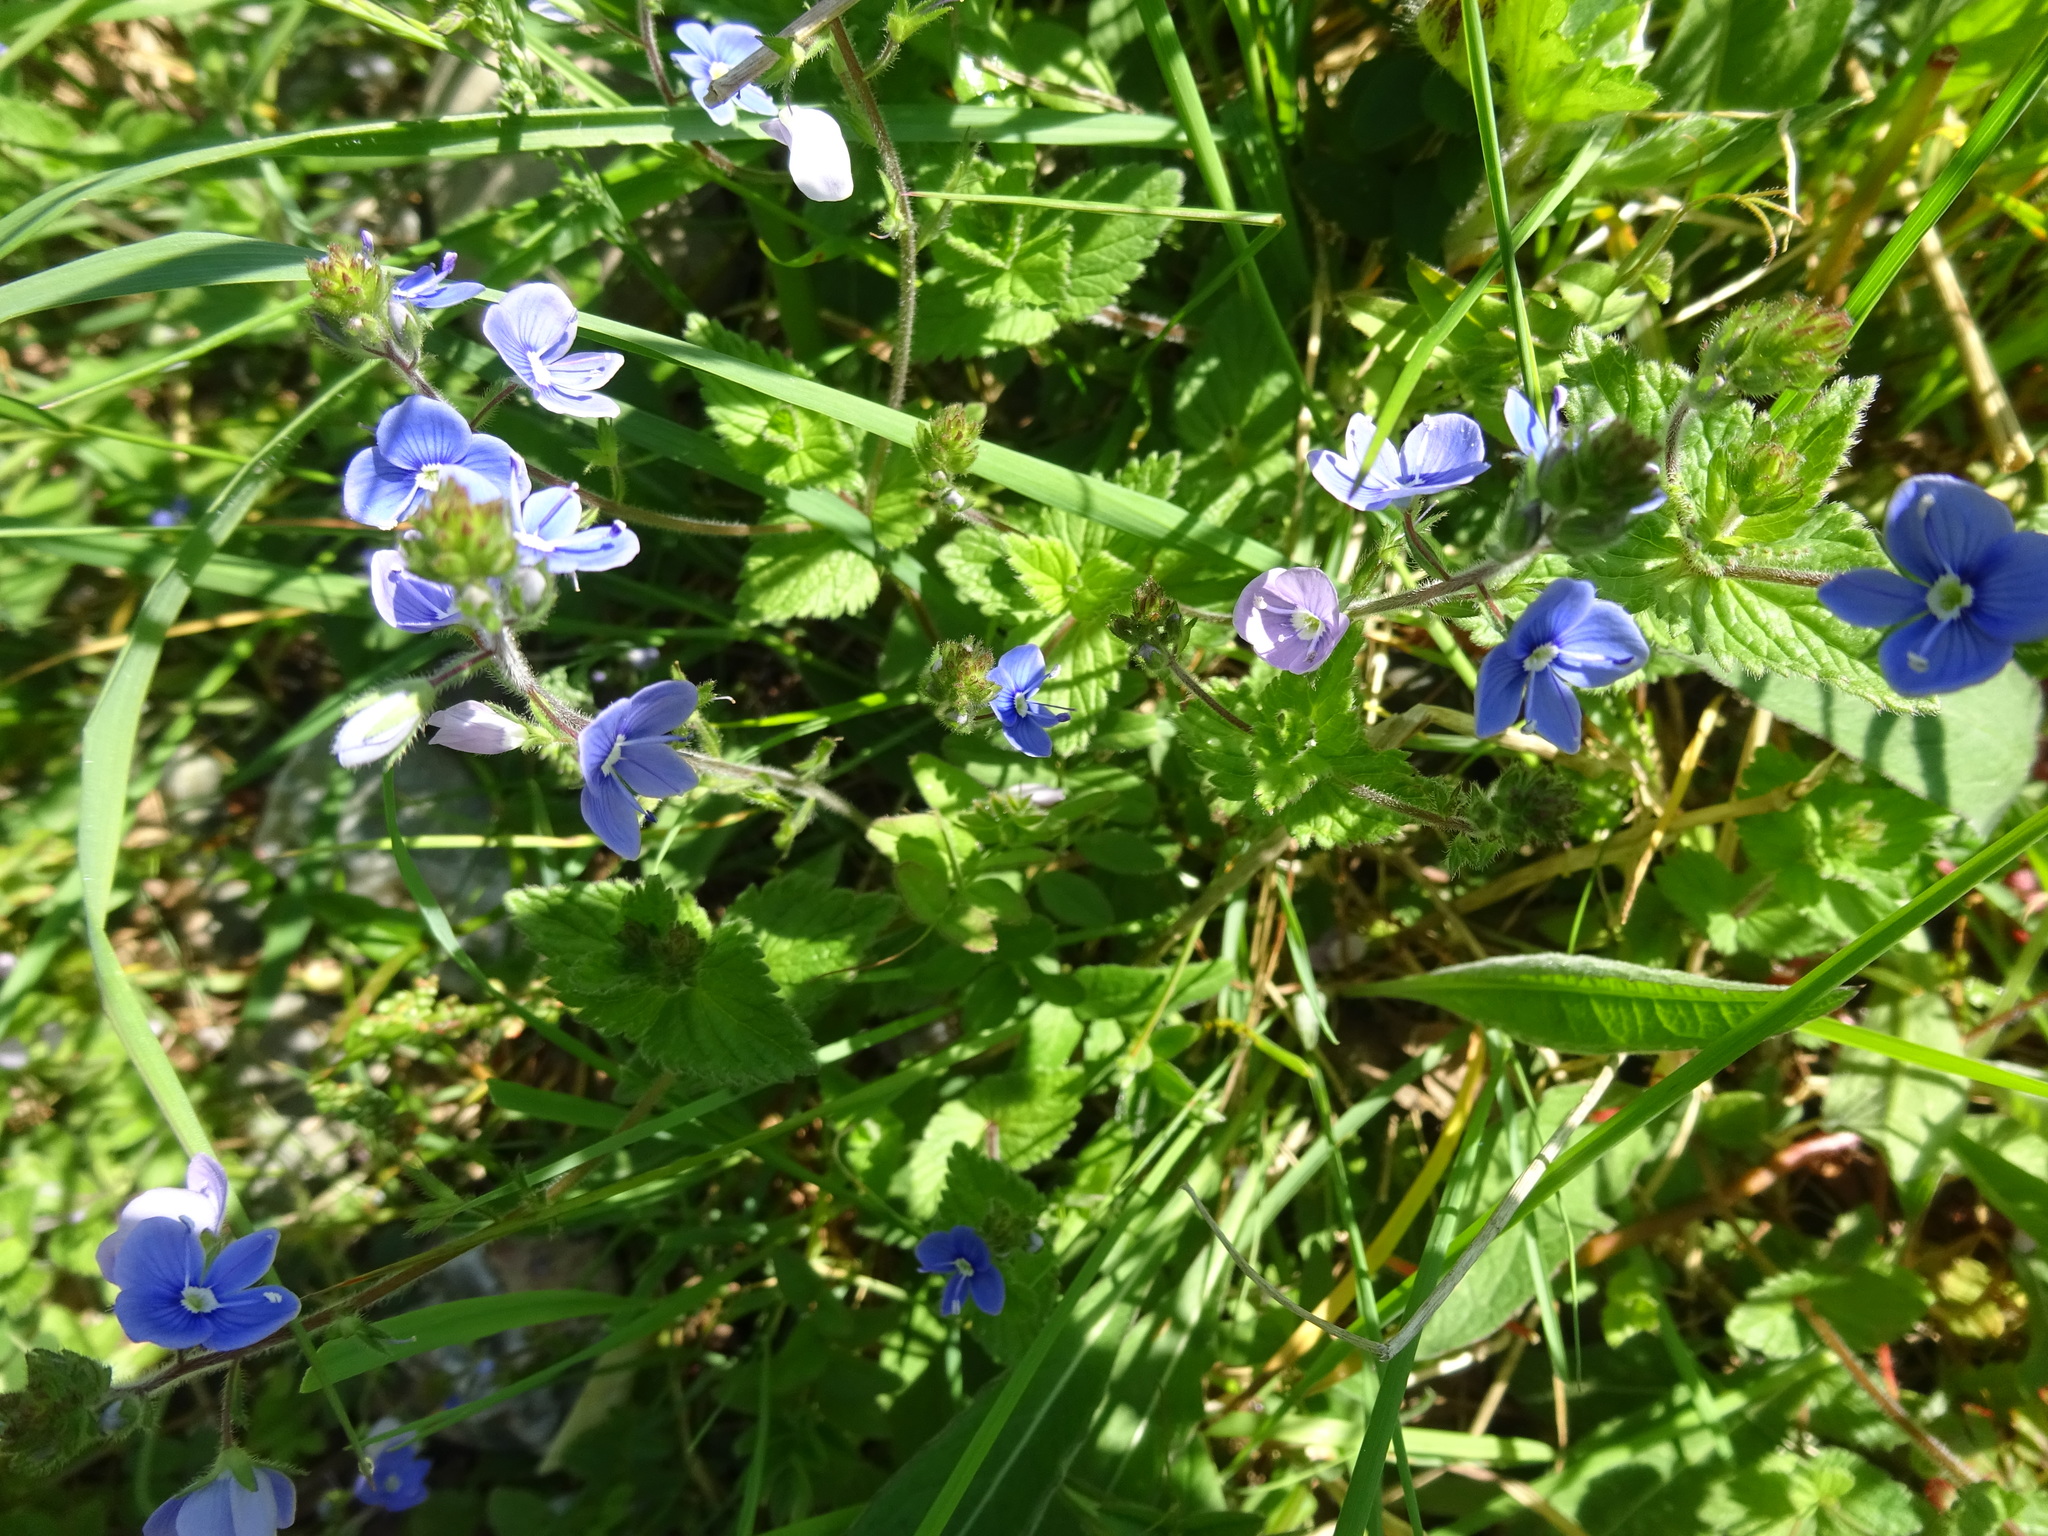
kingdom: Plantae
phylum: Tracheophyta
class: Magnoliopsida
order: Lamiales
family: Plantaginaceae
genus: Veronica
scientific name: Veronica chamaedrys
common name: Germander speedwell
